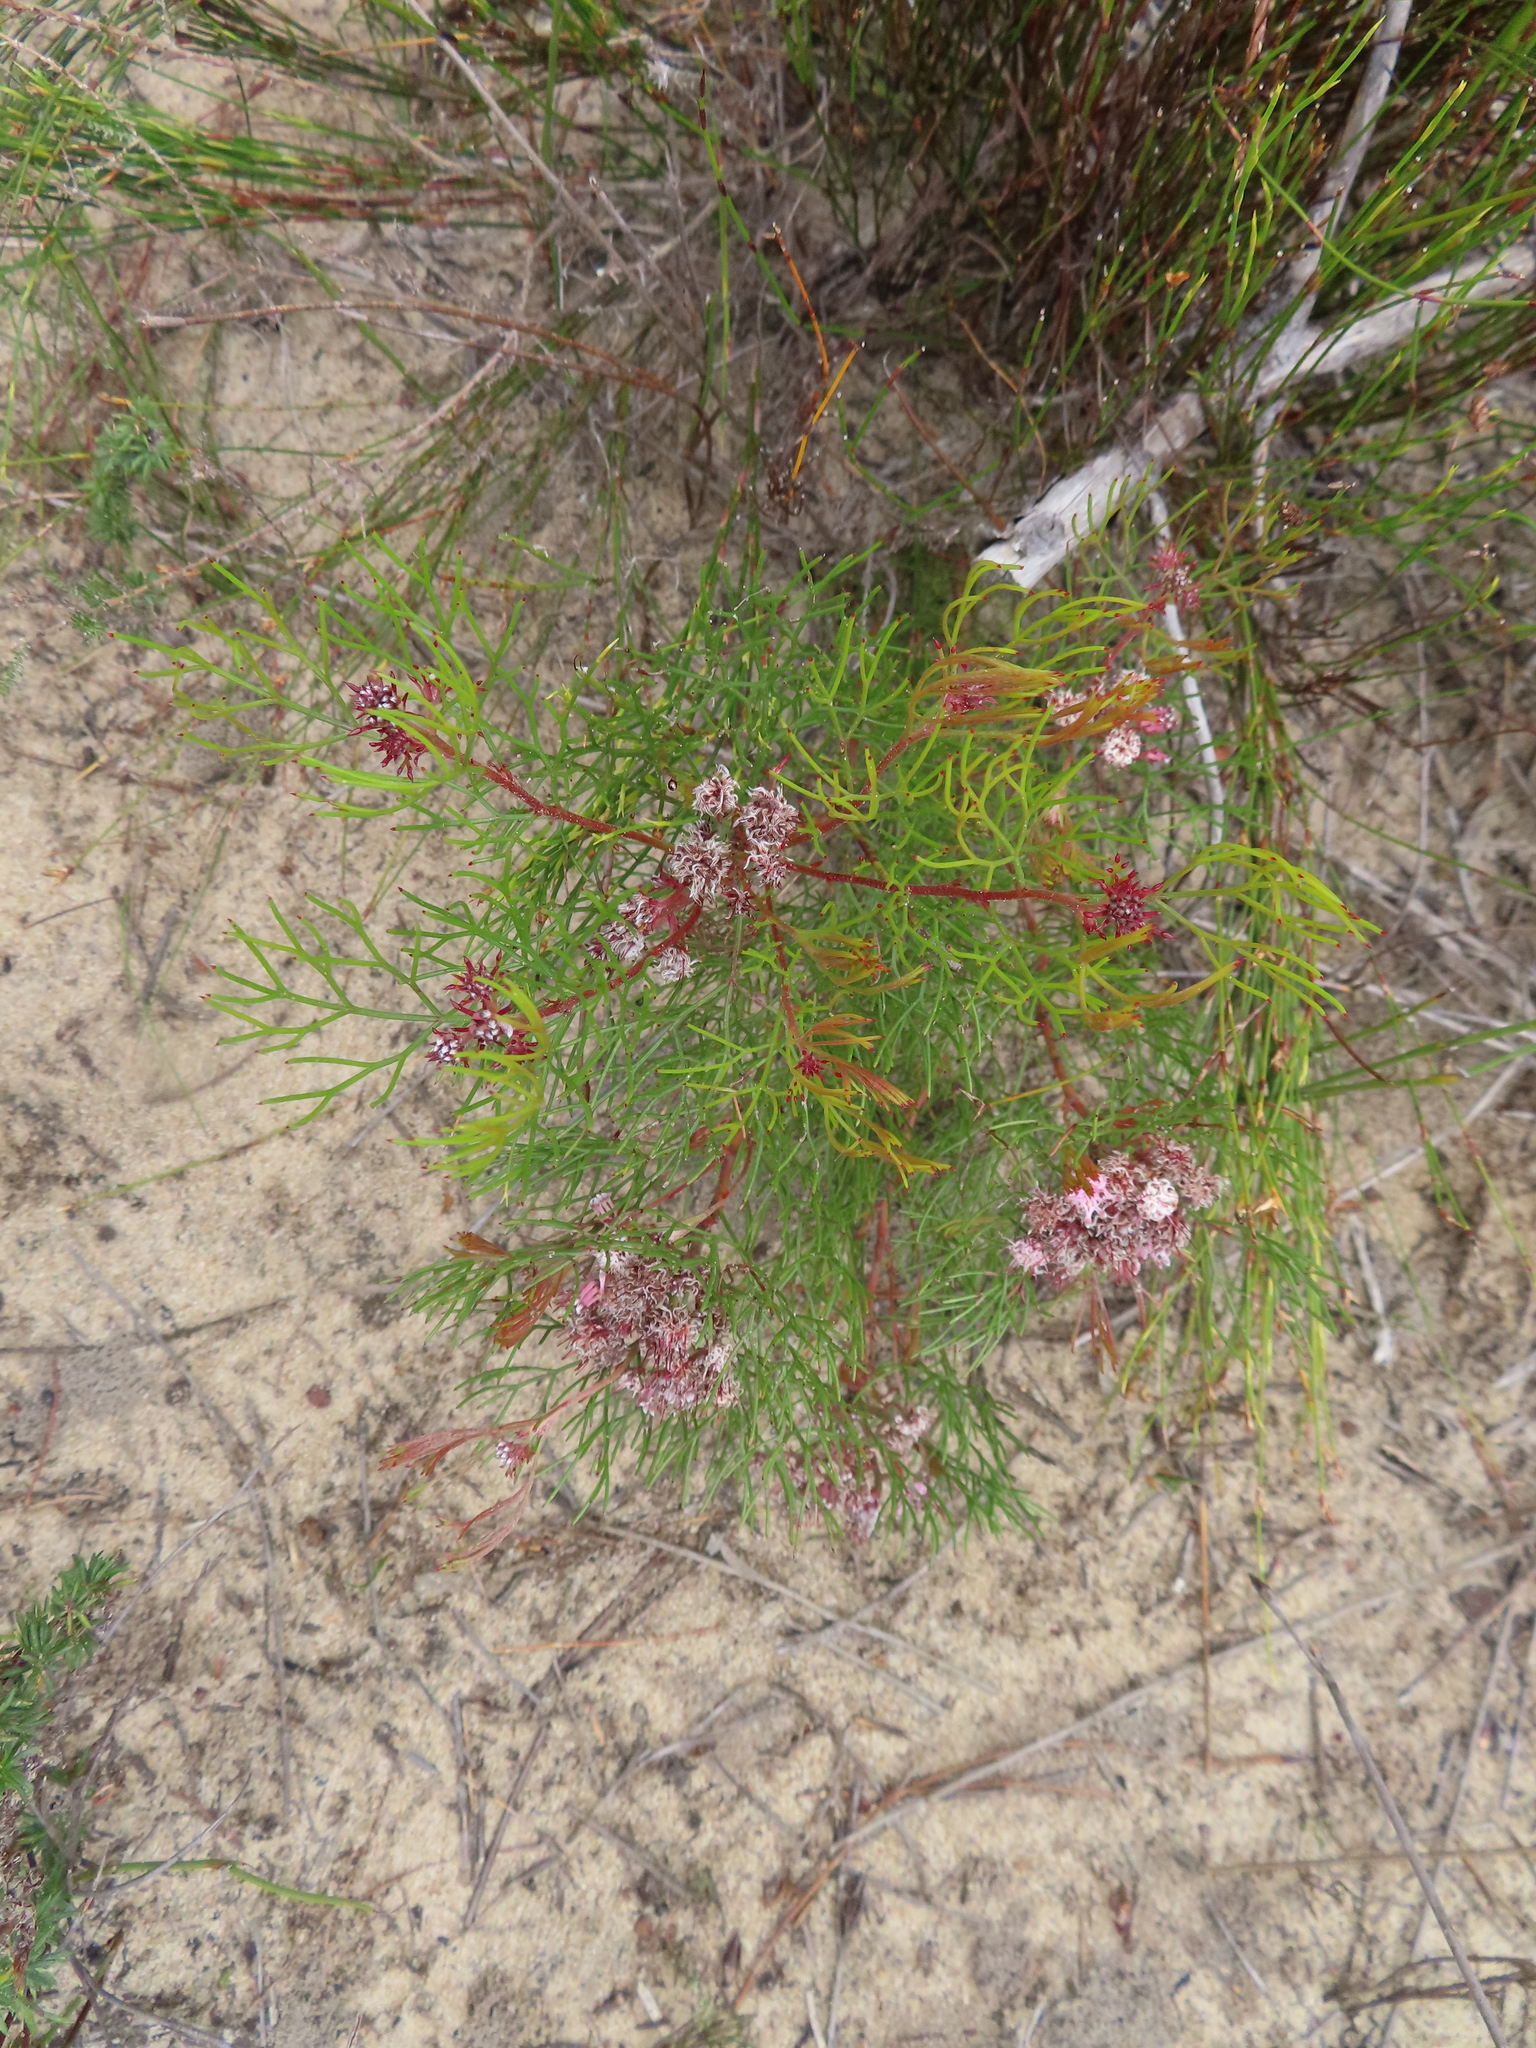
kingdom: Plantae
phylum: Tracheophyta
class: Magnoliopsida
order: Proteales
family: Proteaceae
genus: Serruria
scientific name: Serruria fasciflora
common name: Common pin spiderhead
